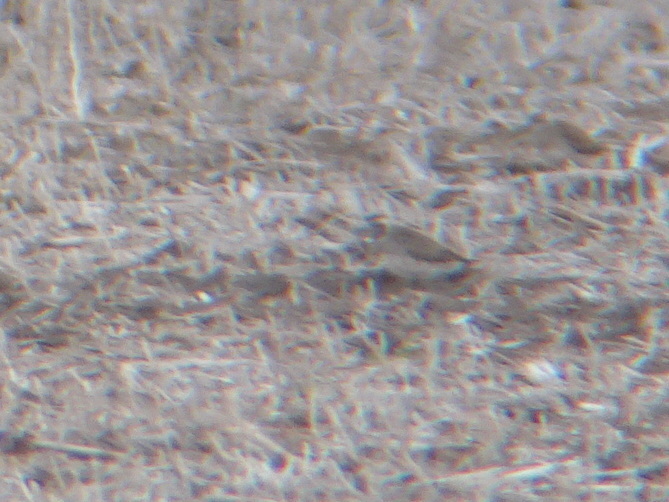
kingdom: Animalia
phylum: Chordata
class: Aves
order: Charadriiformes
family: Charadriidae
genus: Pluvialis
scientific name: Pluvialis dominica
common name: American golden plover
